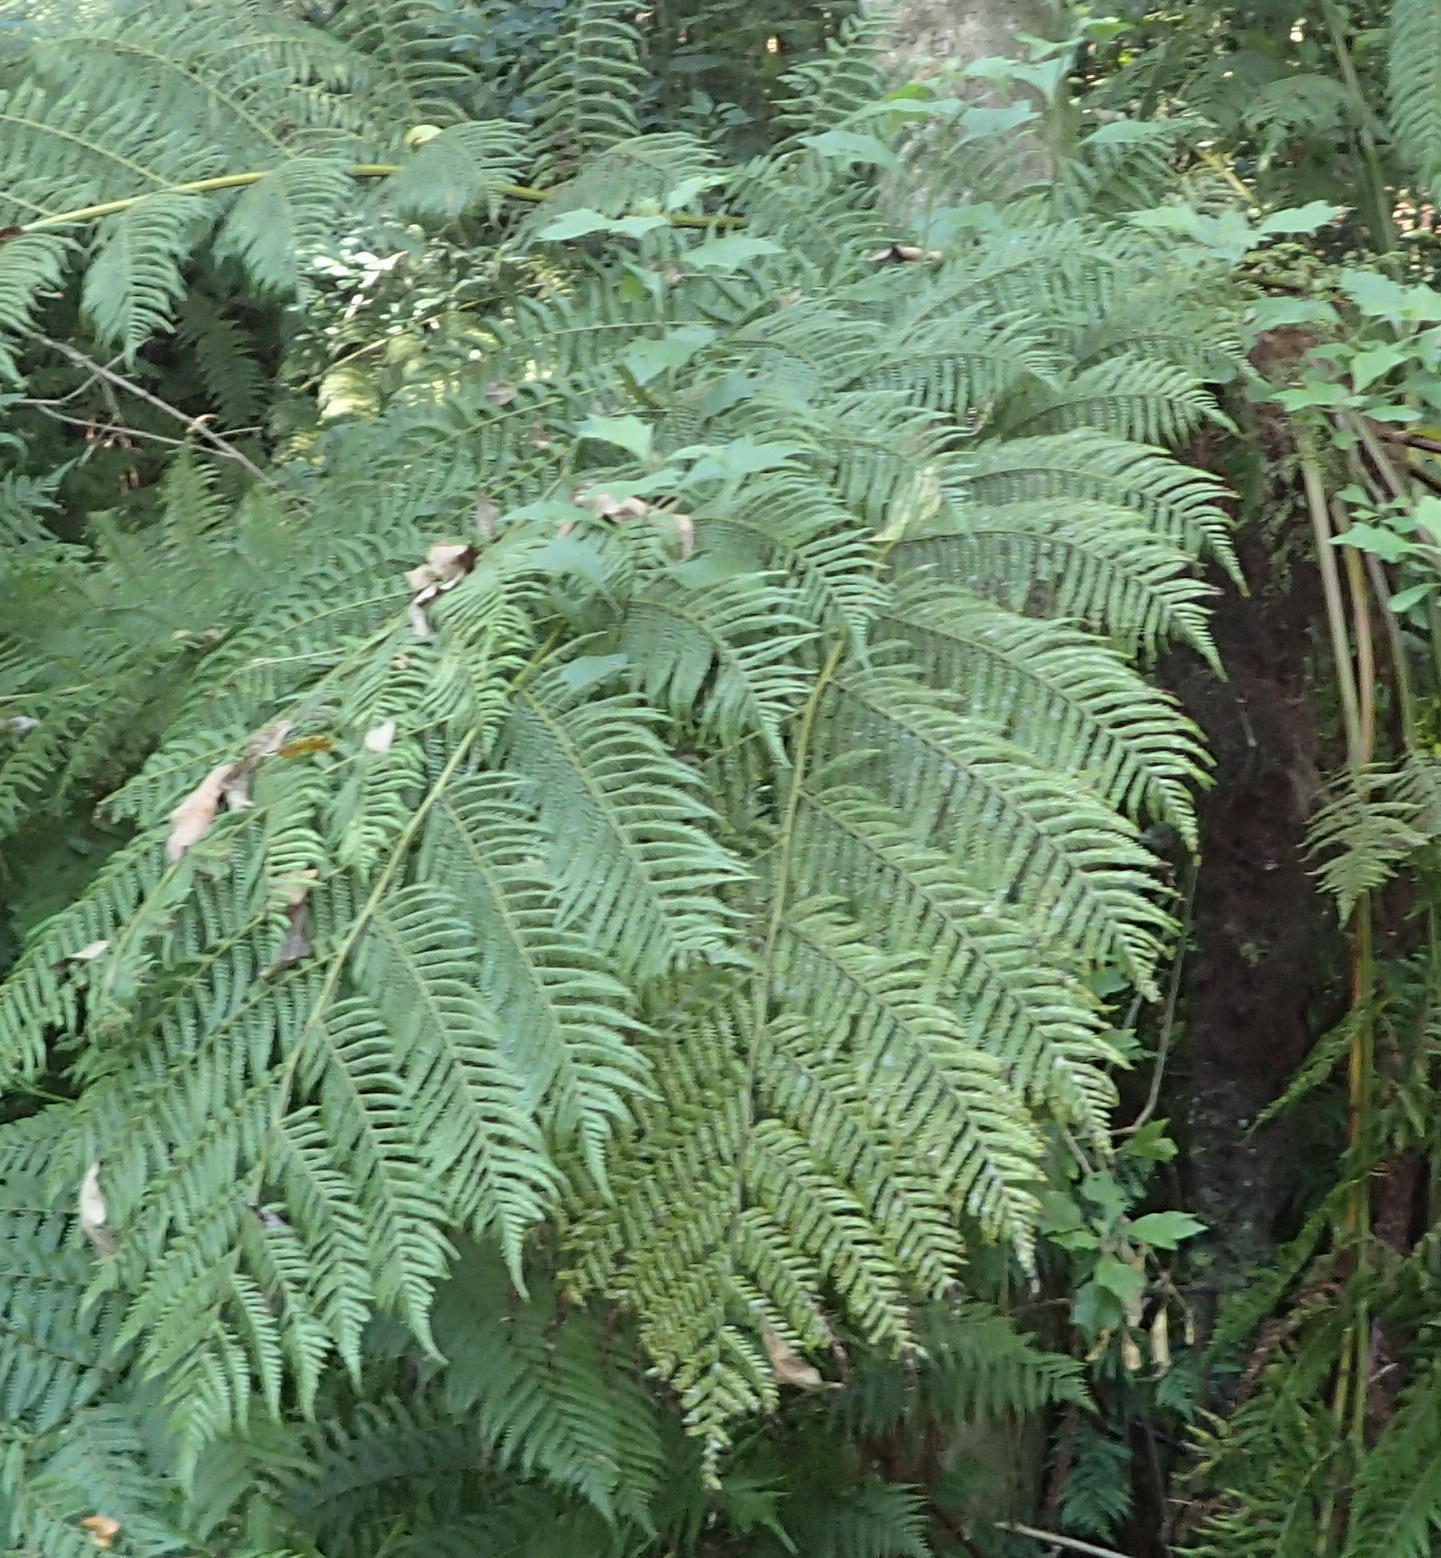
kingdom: Plantae
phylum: Tracheophyta
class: Polypodiopsida
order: Cyatheales
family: Cyatheaceae
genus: Gymnosphaera
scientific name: Gymnosphaera capensis
